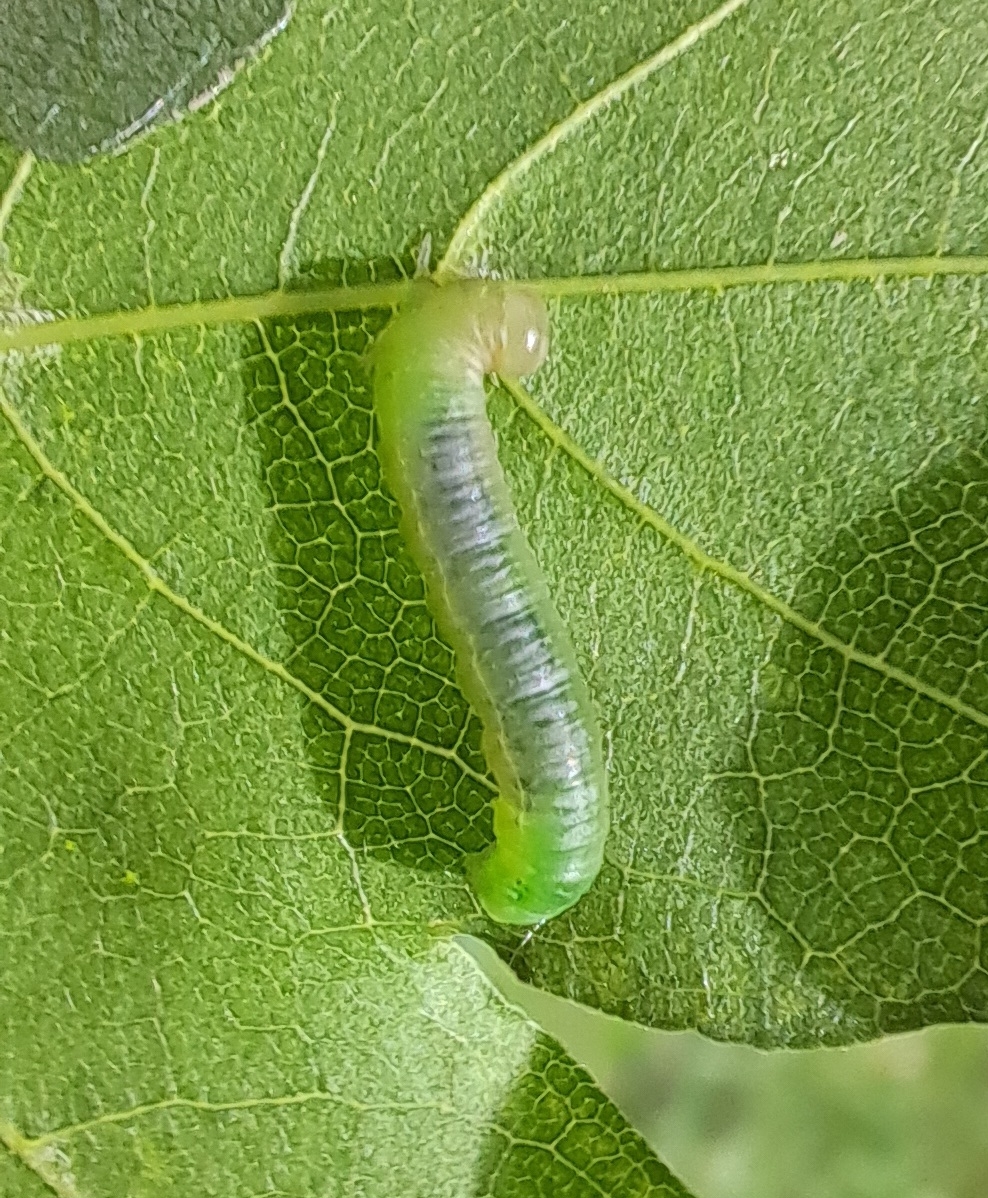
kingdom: Animalia
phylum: Arthropoda
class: Insecta
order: Hymenoptera
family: Tenthredinidae
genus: Pristiphora
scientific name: Pristiphora subbifida
